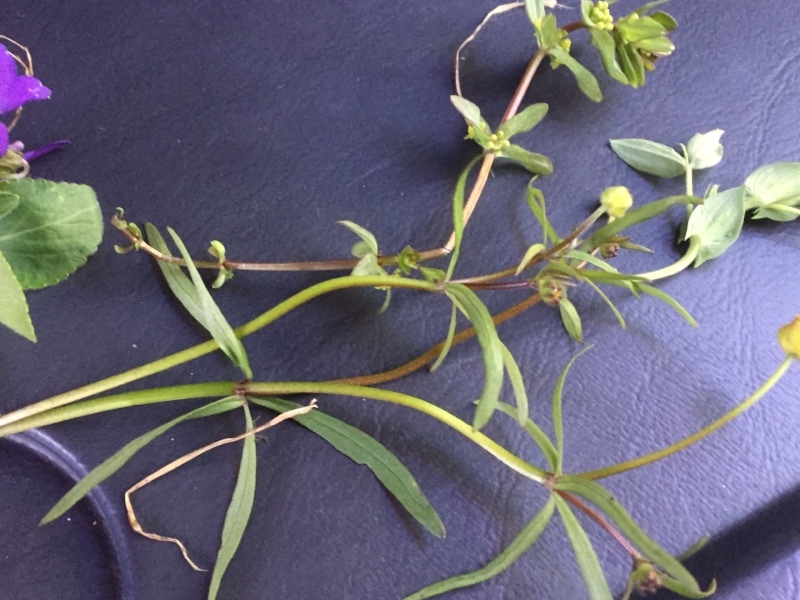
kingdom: Plantae
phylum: Tracheophyta
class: Magnoliopsida
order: Ranunculales
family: Ranunculaceae
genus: Ranunculus
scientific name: Ranunculus auricomus
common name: Goldilocks buttercup
